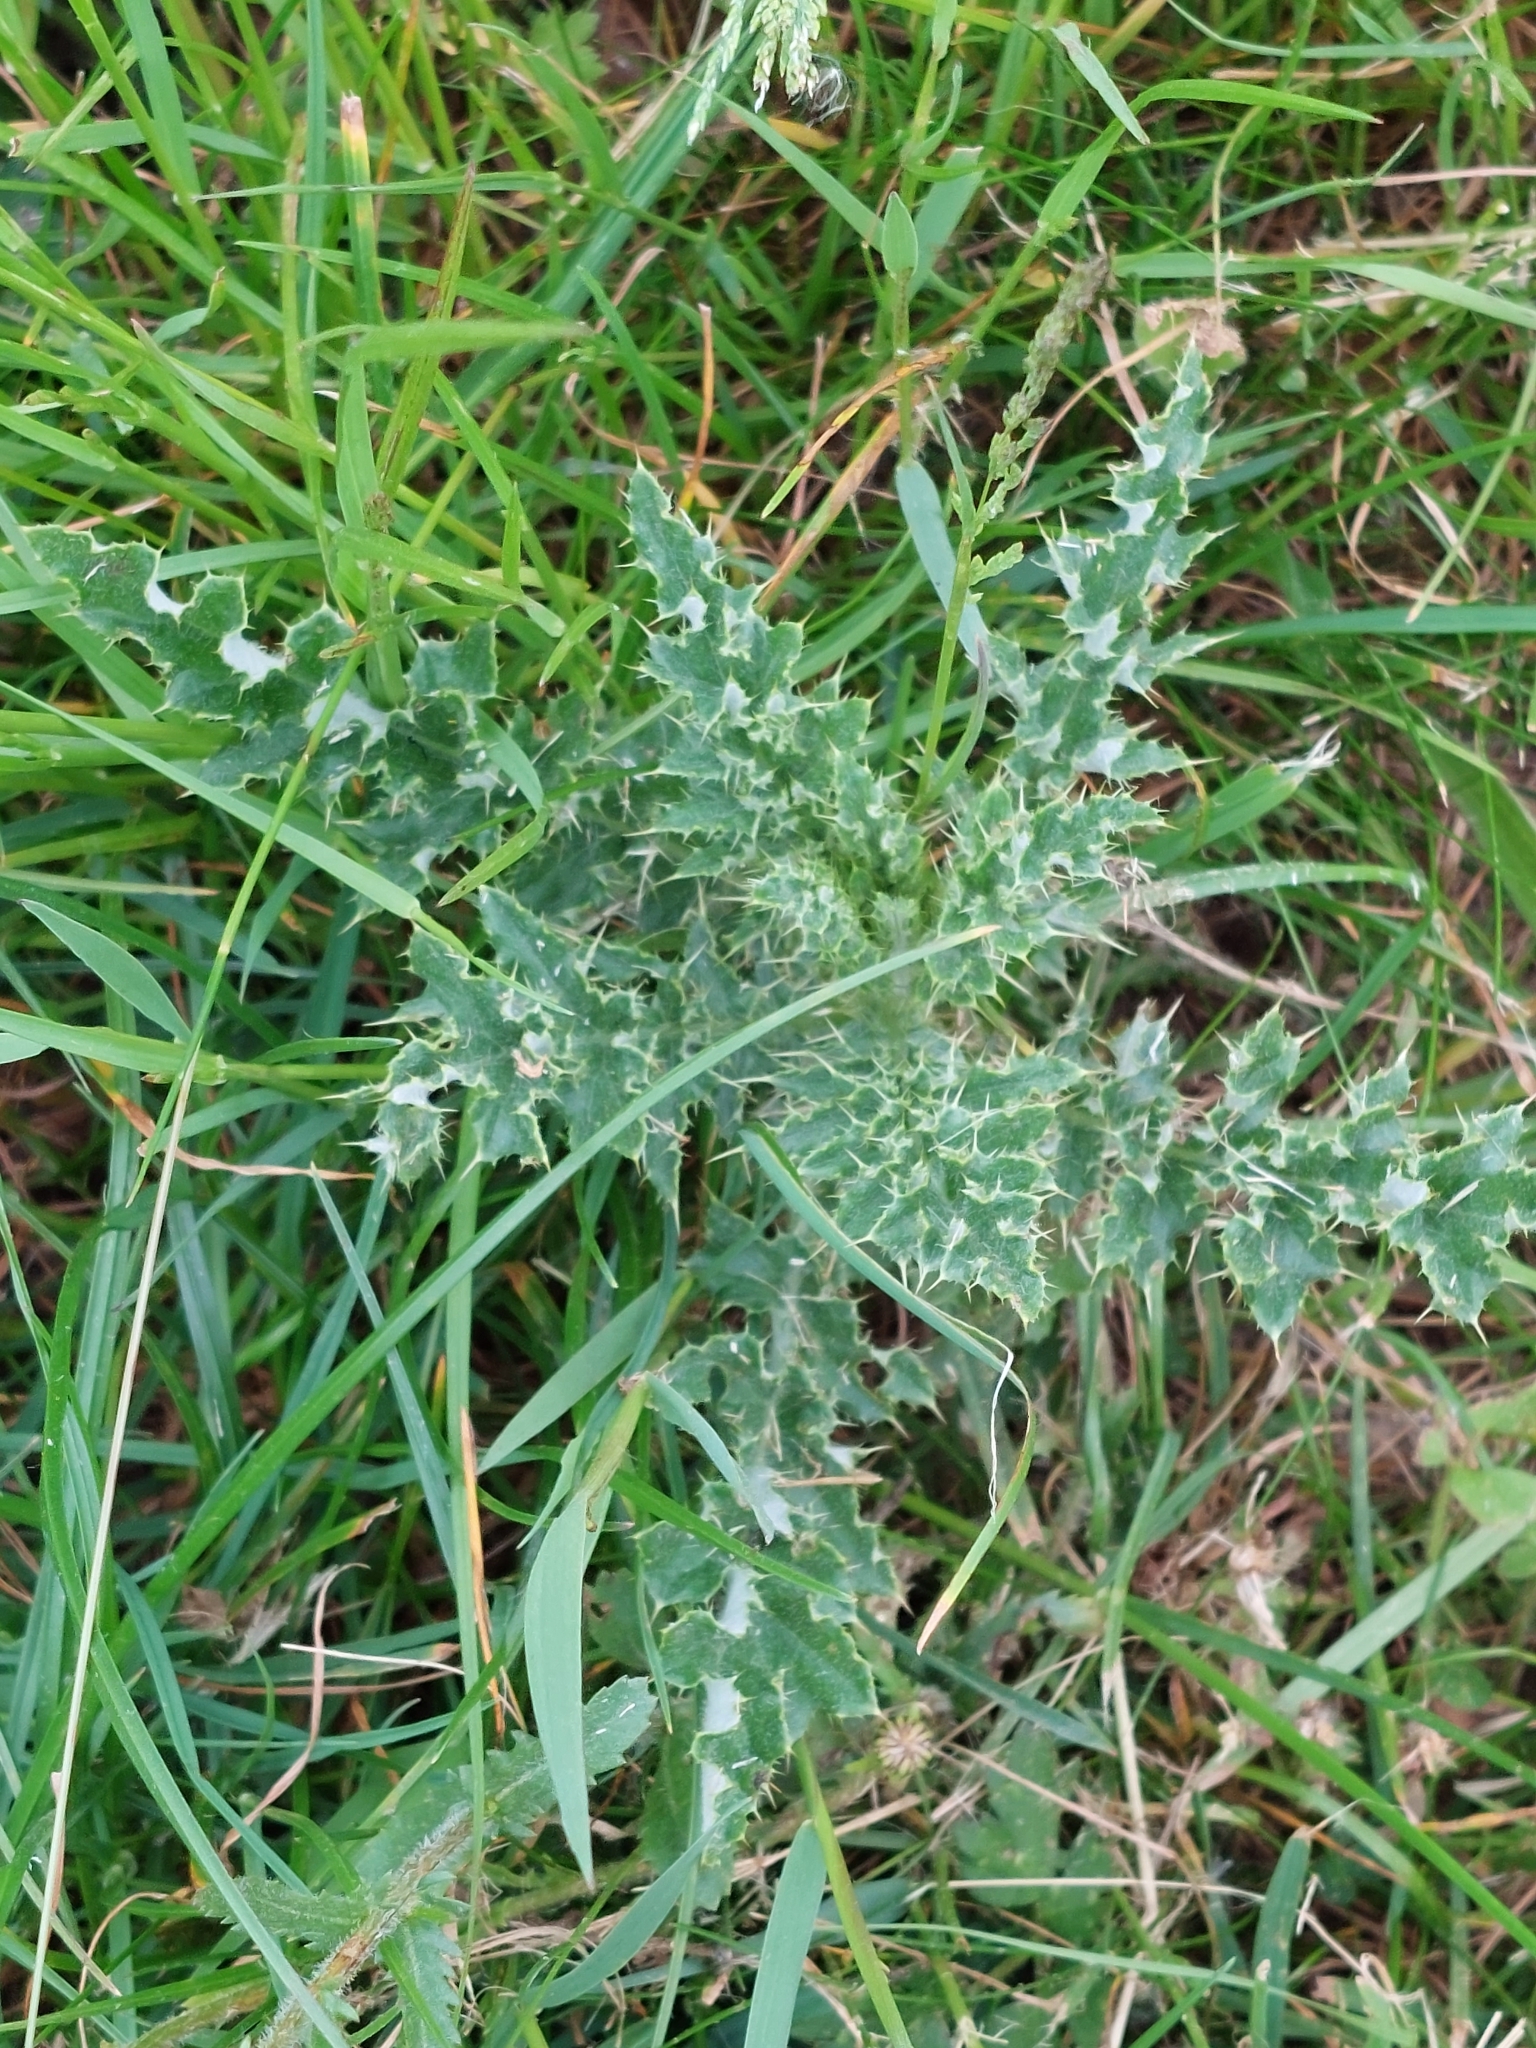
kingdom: Plantae
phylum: Tracheophyta
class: Magnoliopsida
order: Asterales
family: Asteraceae
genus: Cirsium
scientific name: Cirsium arvense
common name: Creeping thistle
